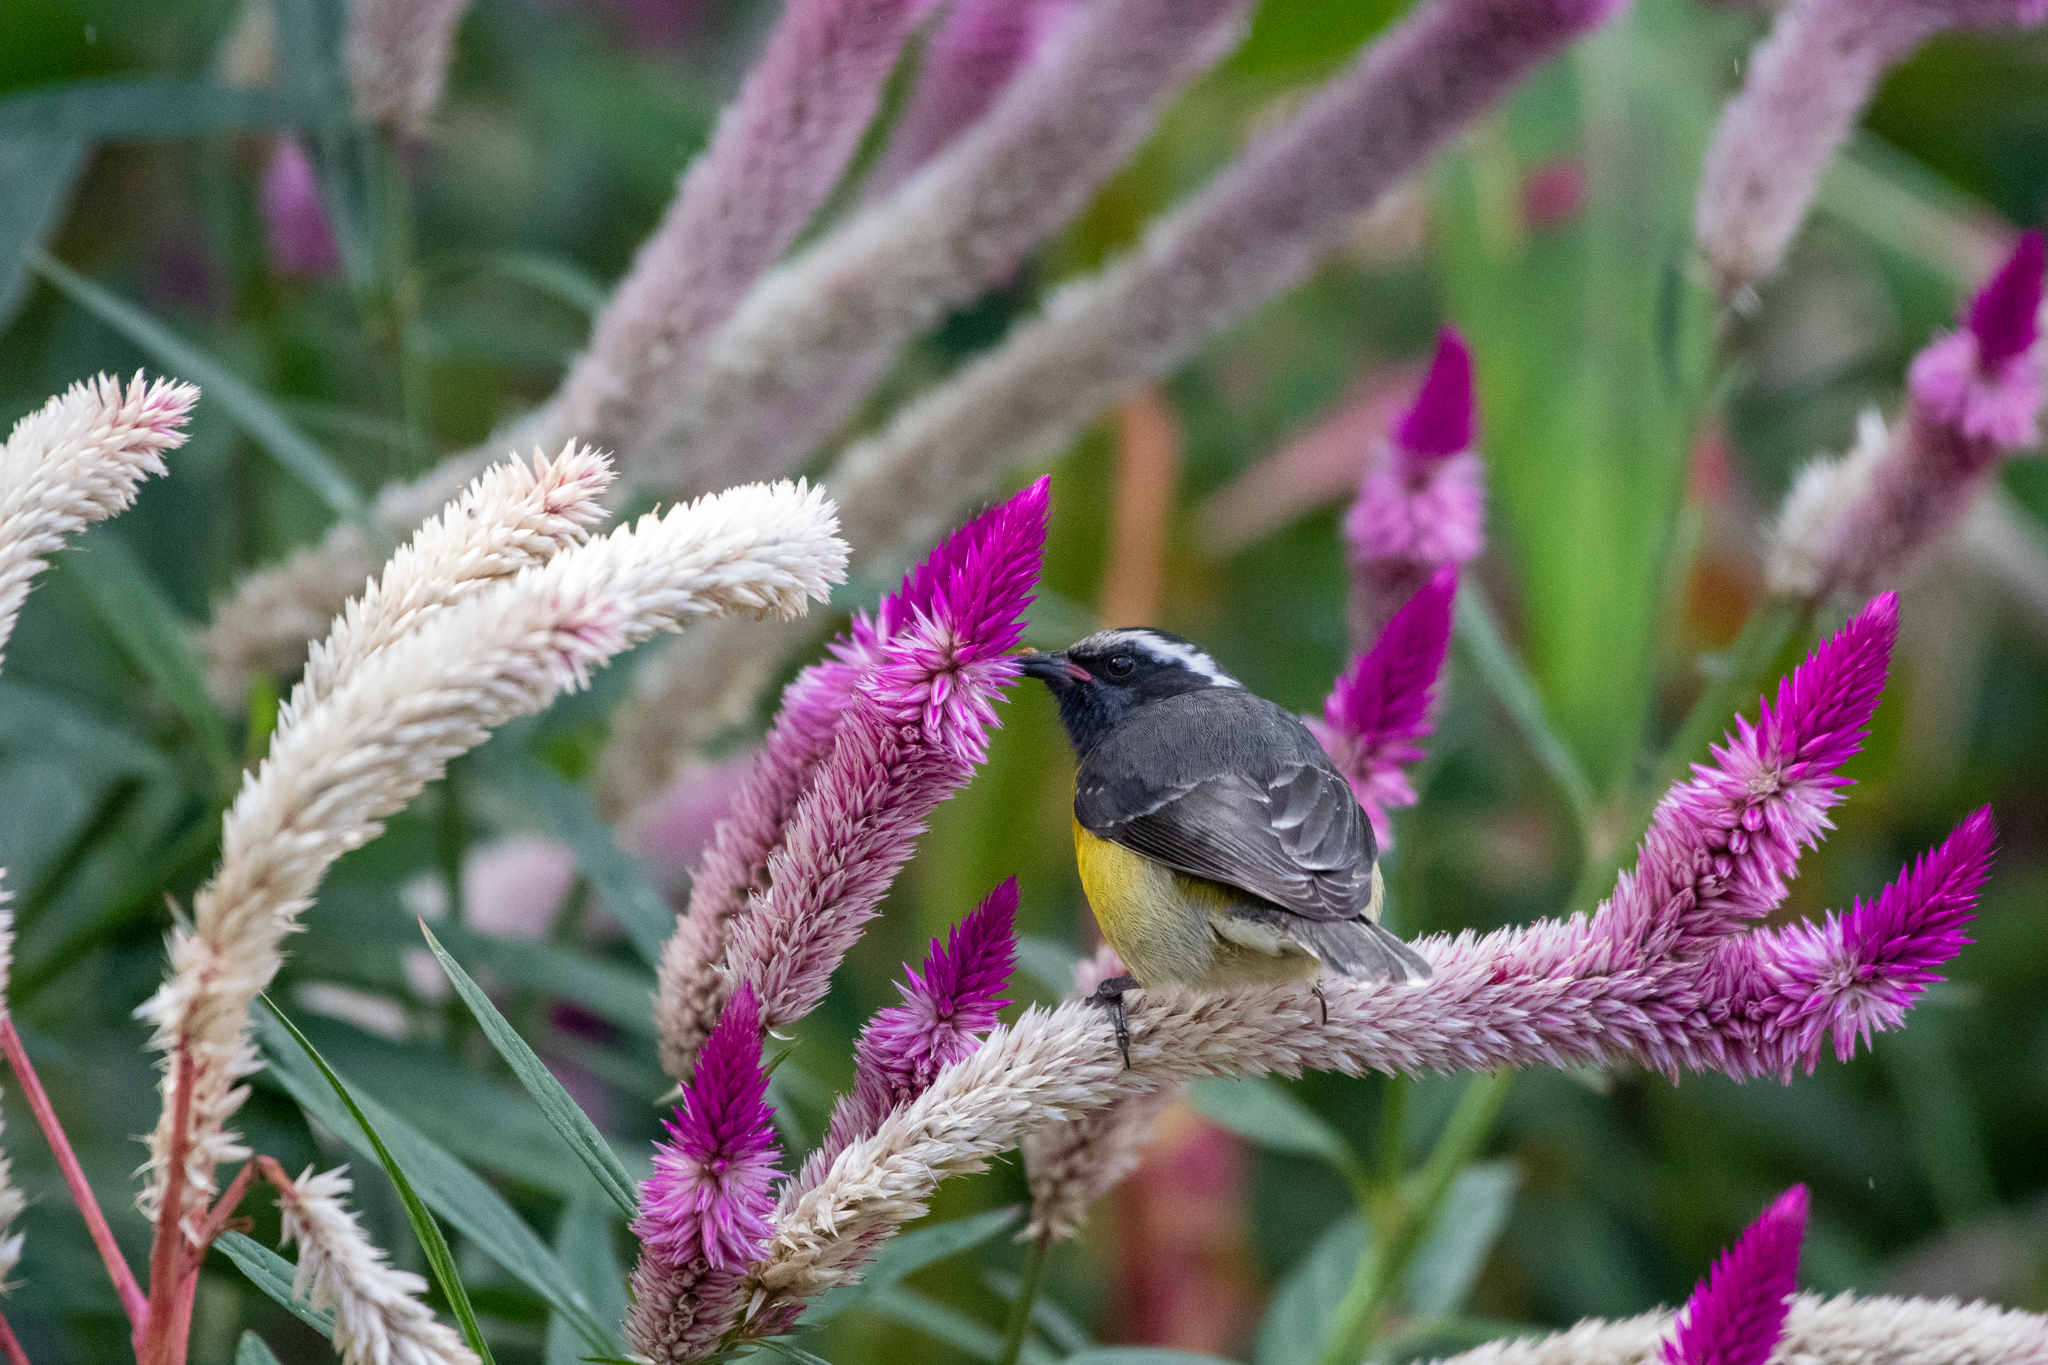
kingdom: Animalia
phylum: Chordata
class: Aves
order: Passeriformes
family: Thraupidae
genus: Coereba
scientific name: Coereba flaveola
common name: Bananaquit
